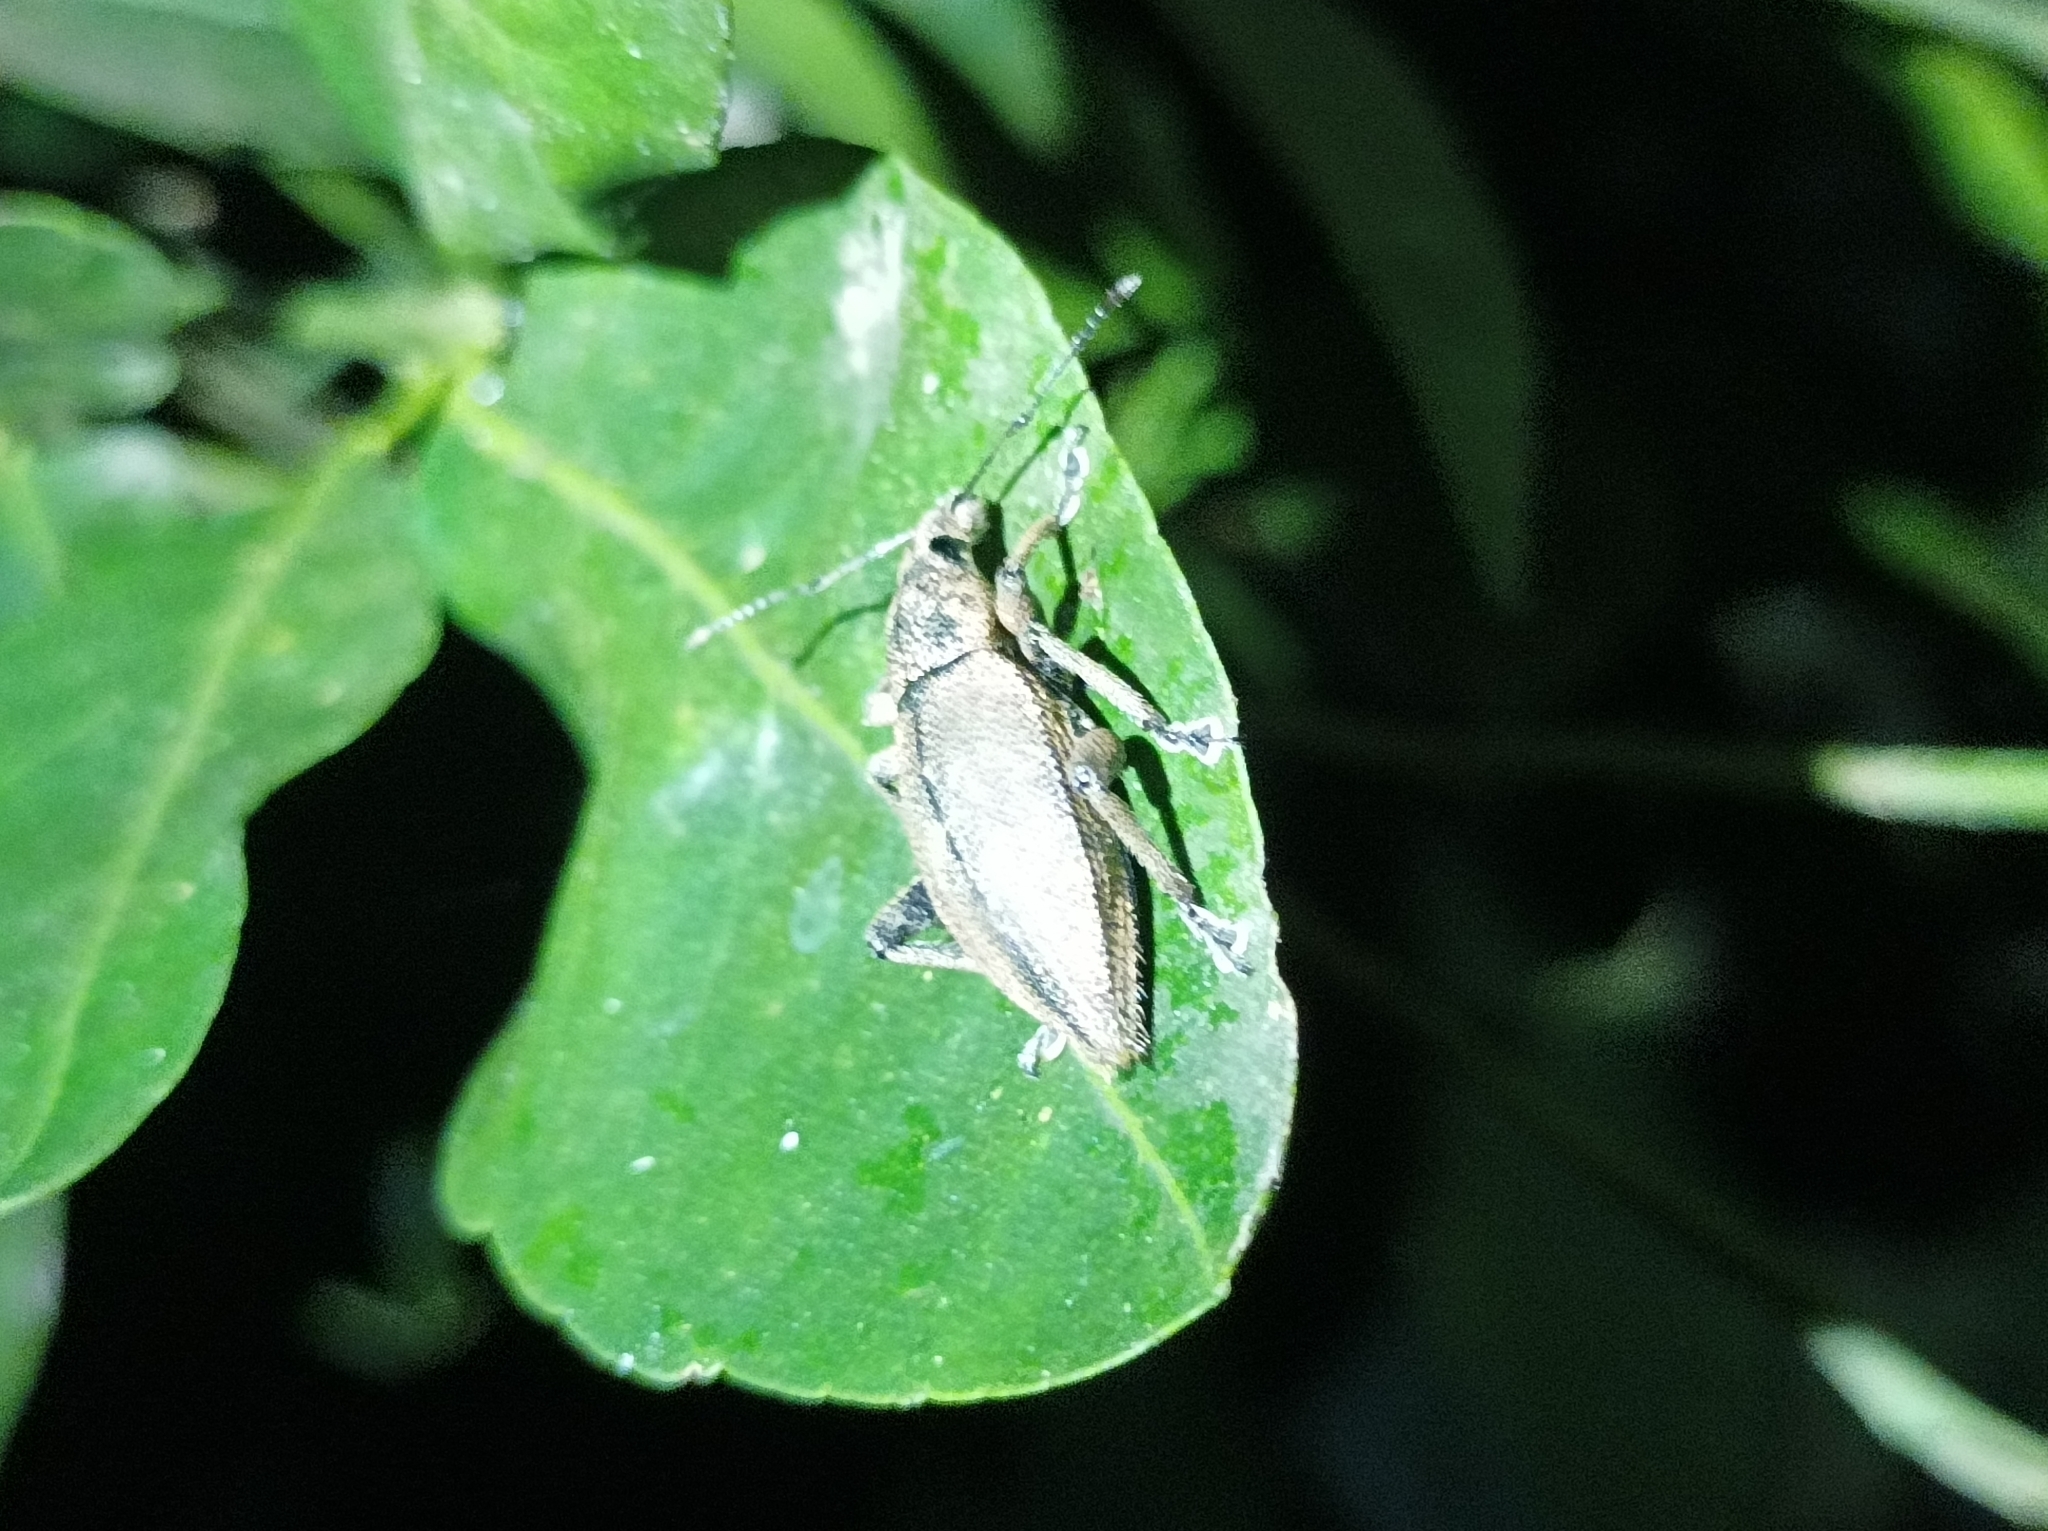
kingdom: Animalia
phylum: Arthropoda
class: Insecta
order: Coleoptera
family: Curculionidae
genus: Elytrurus
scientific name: Elytrurus serrulatus
